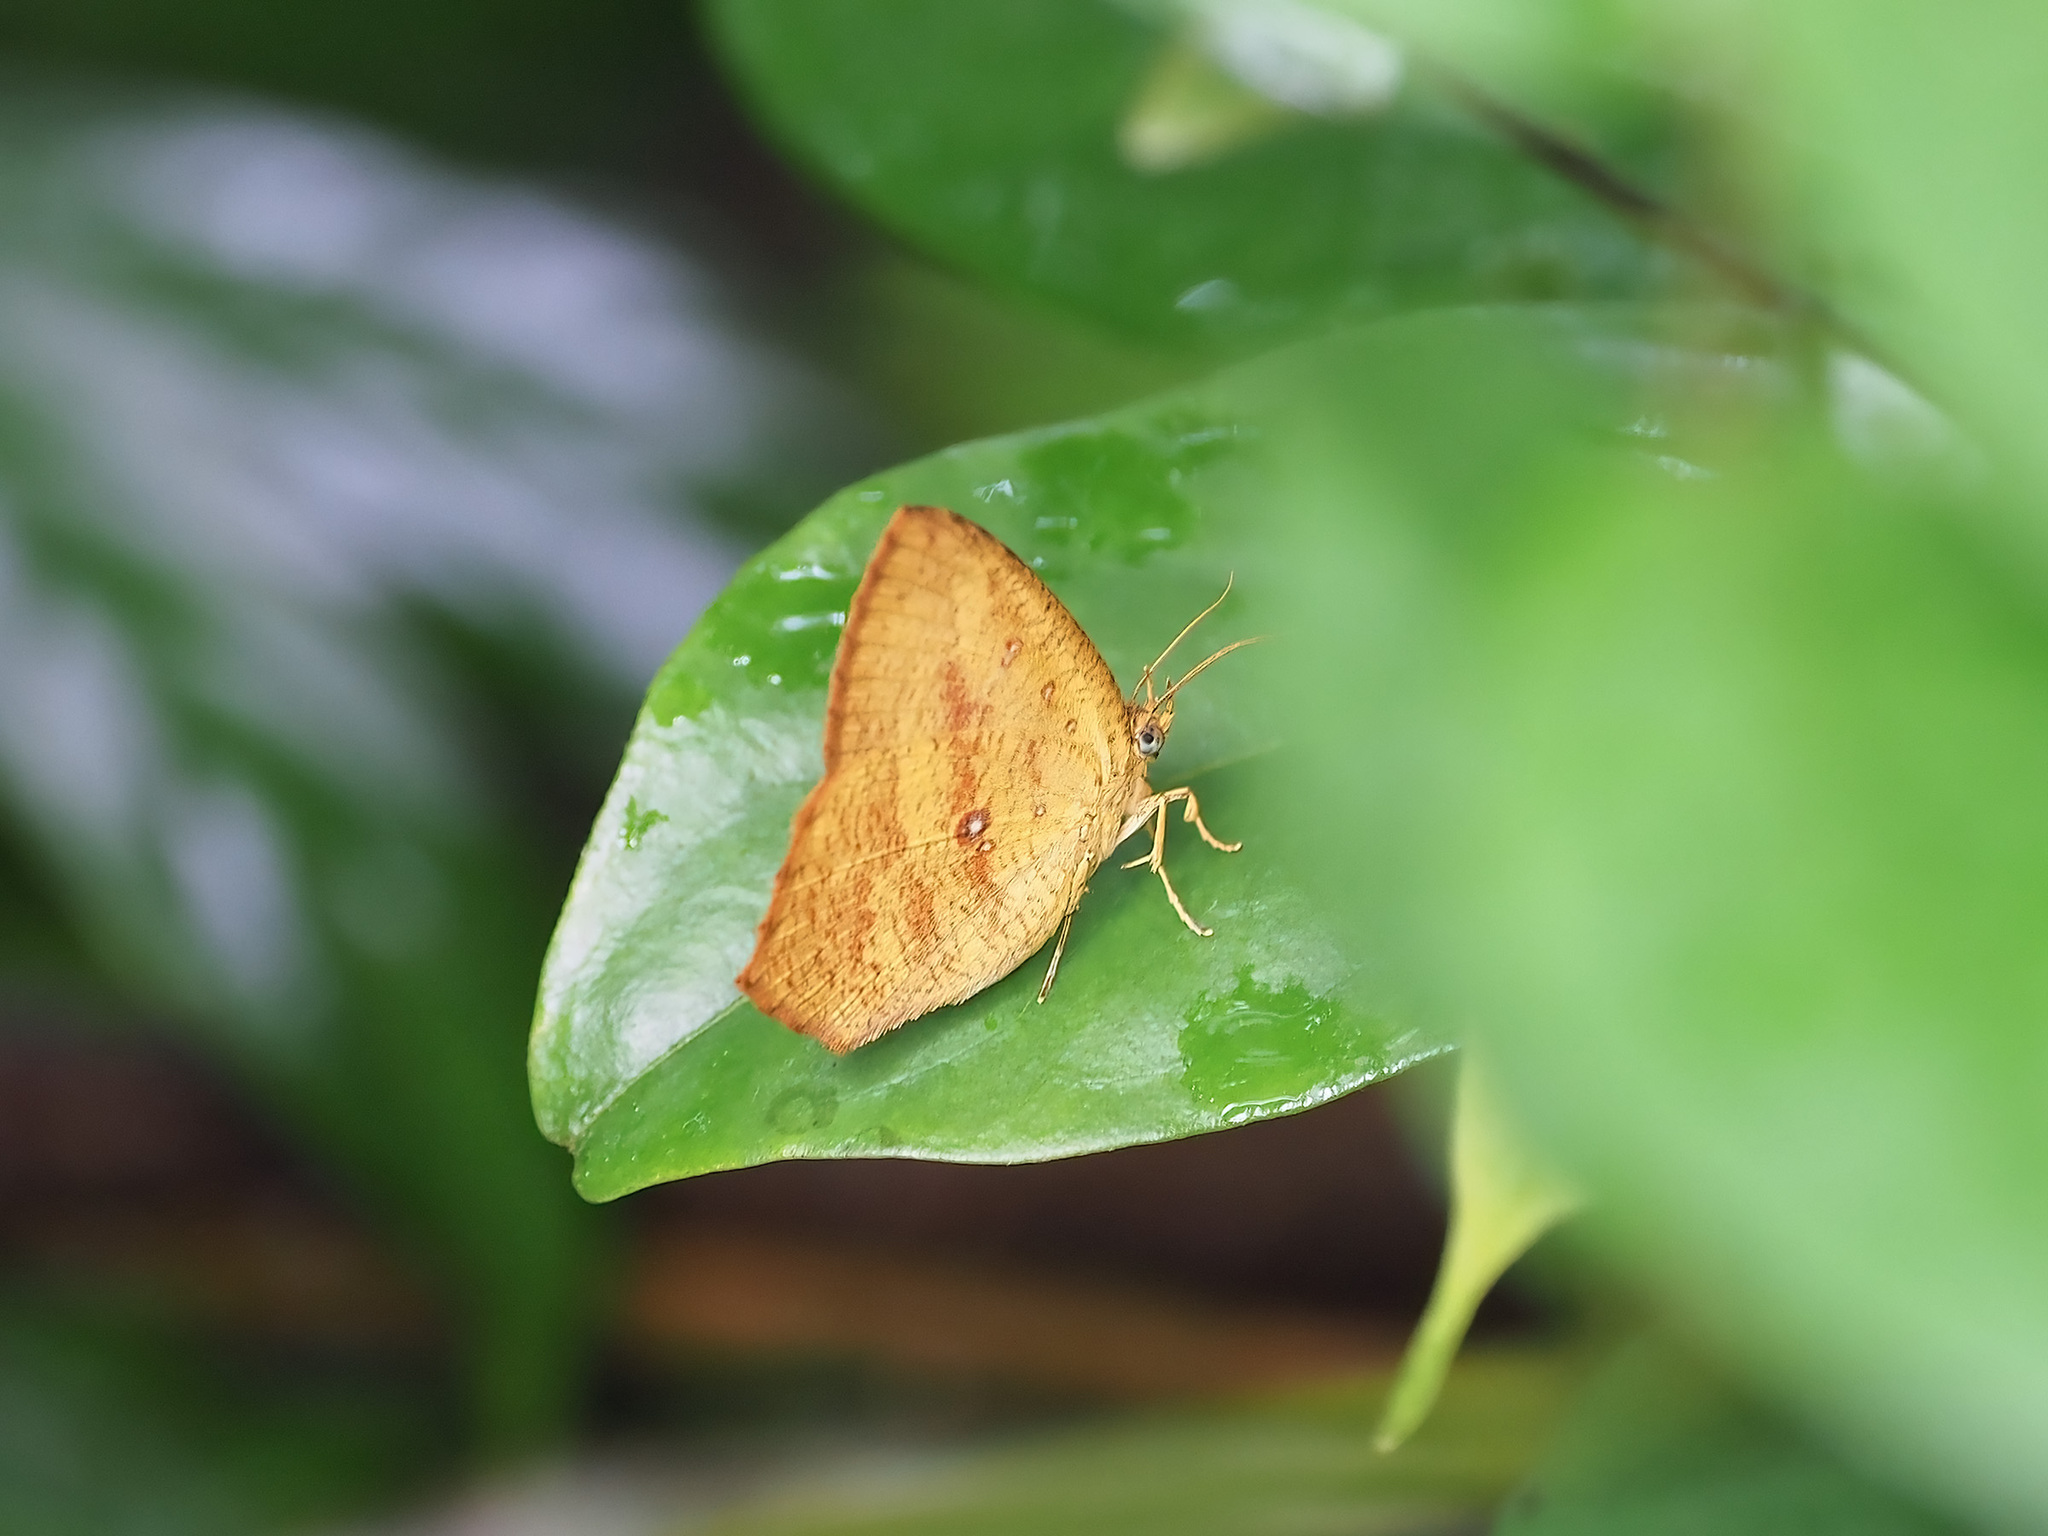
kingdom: Animalia
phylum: Arthropoda
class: Insecta
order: Lepidoptera
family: Callidulidae
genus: Tetragonus
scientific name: Tetragonus catamitus
